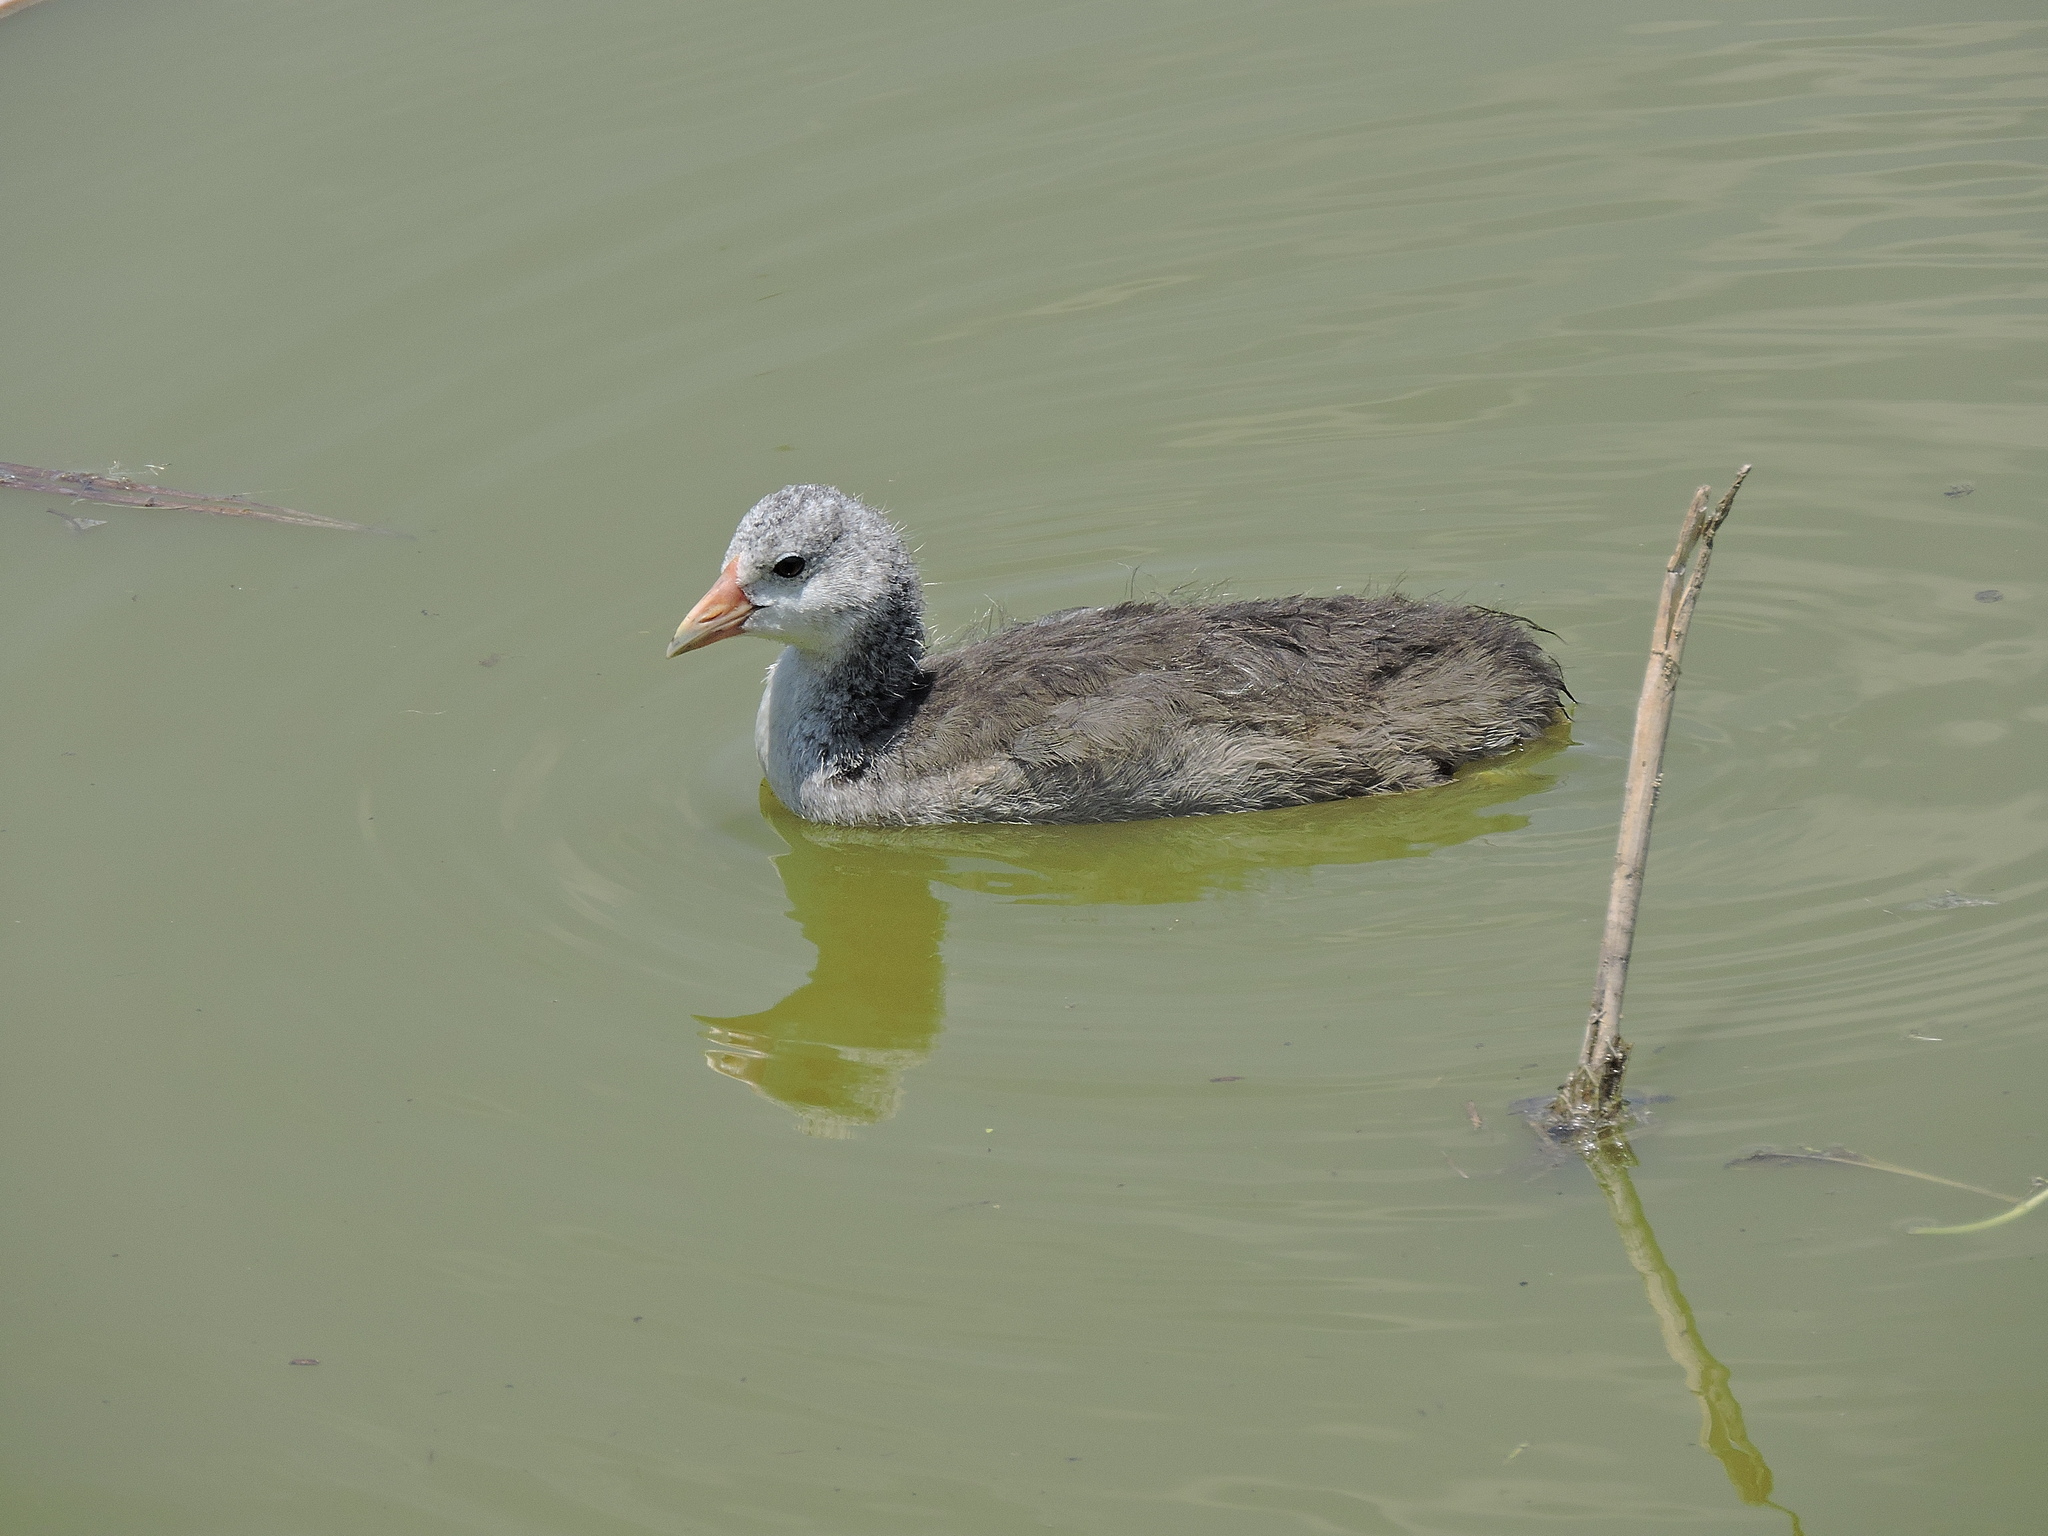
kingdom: Animalia
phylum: Chordata
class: Aves
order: Gruiformes
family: Rallidae
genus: Fulica
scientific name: Fulica americana
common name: American coot
